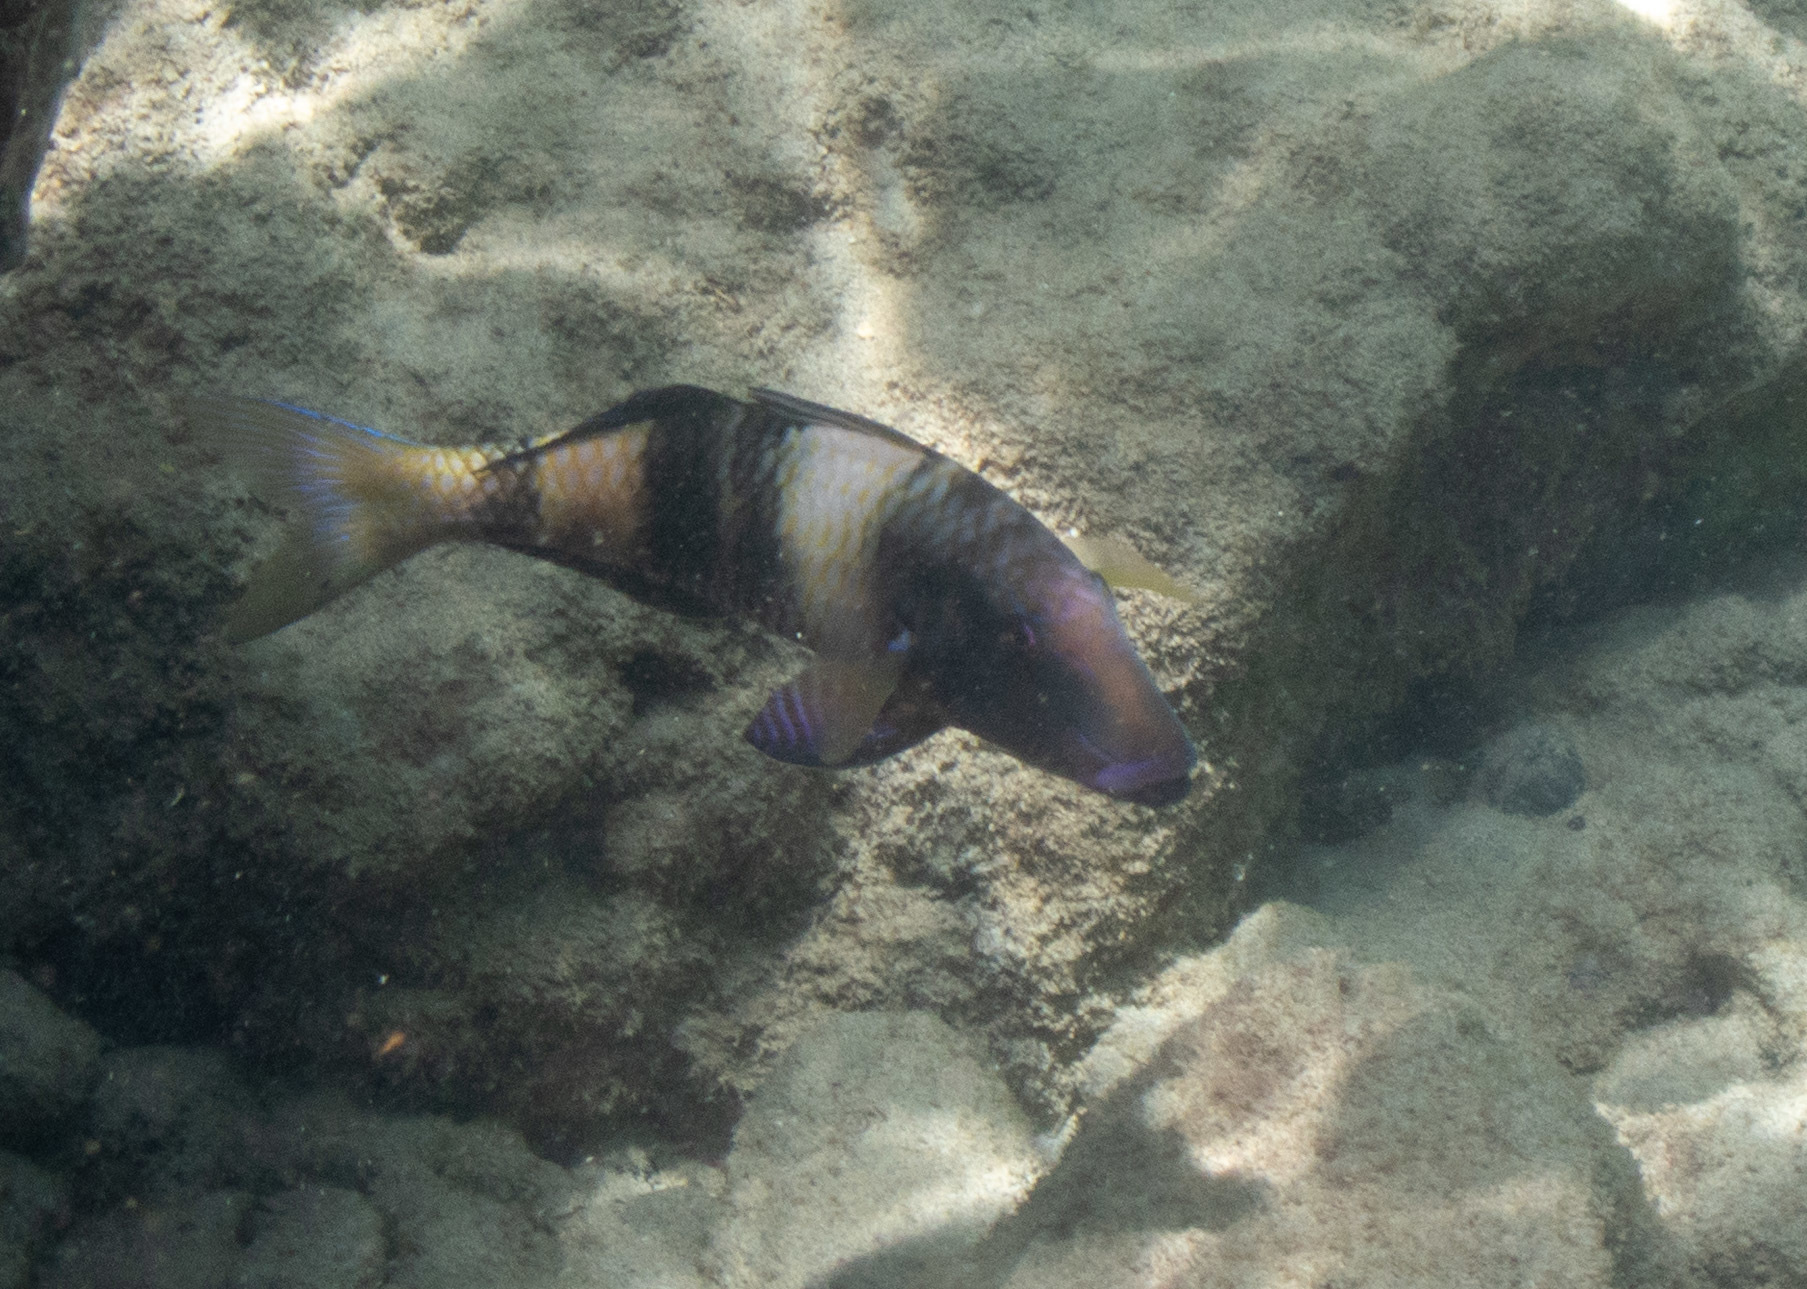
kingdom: Animalia
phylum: Chordata
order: Perciformes
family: Mullidae
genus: Parupeneus
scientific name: Parupeneus multifasciatus
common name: Manybar goatfish
